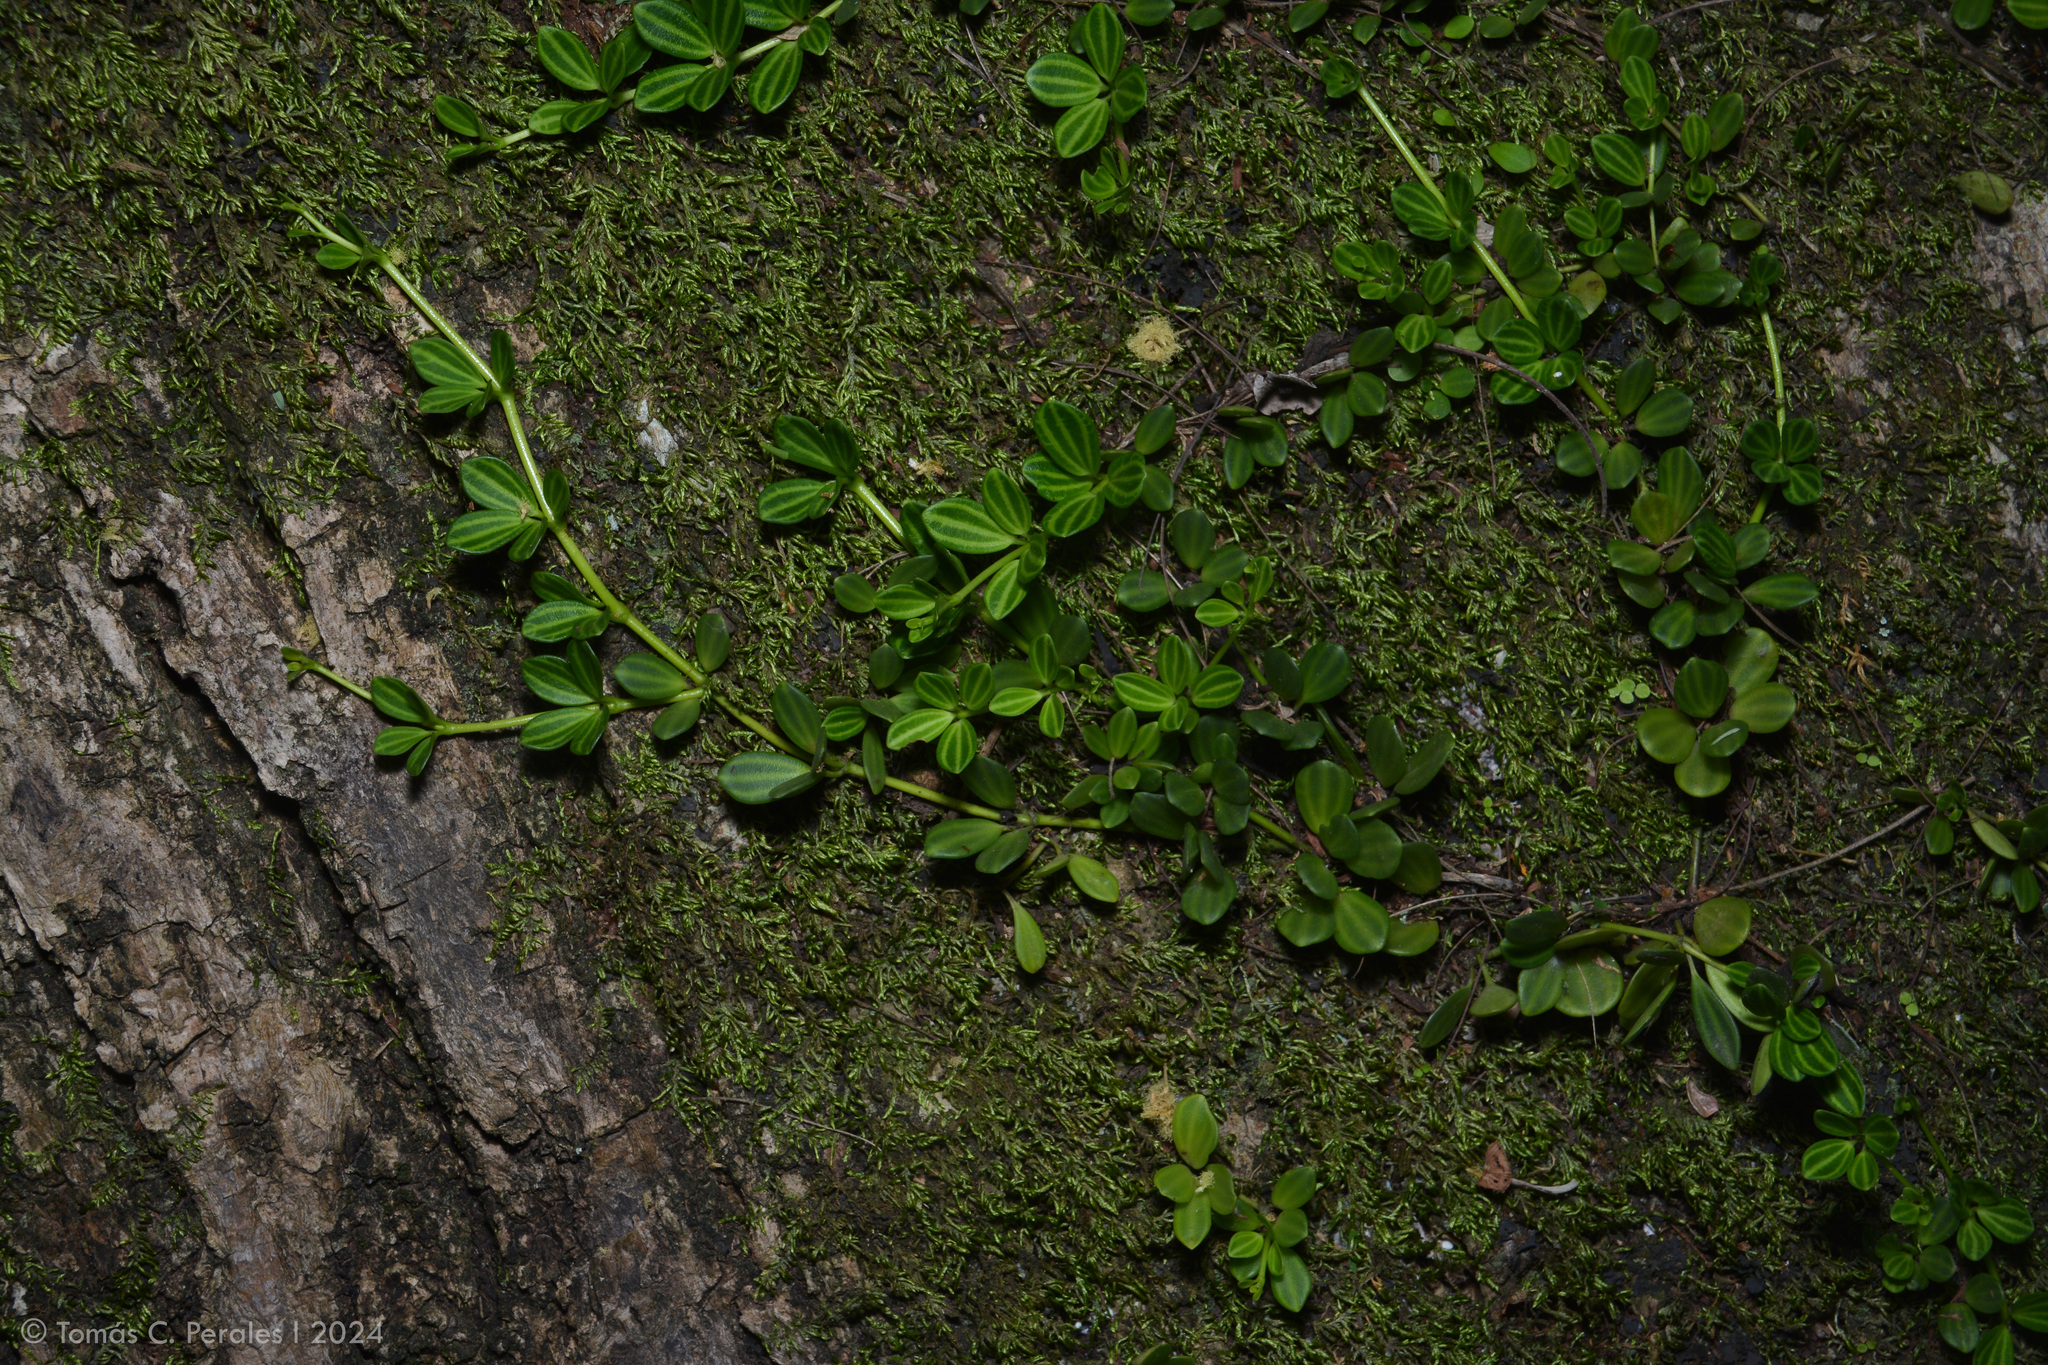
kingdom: Plantae
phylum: Tracheophyta
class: Magnoliopsida
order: Piperales
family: Piperaceae
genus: Peperomia
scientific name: Peperomia aceroana
